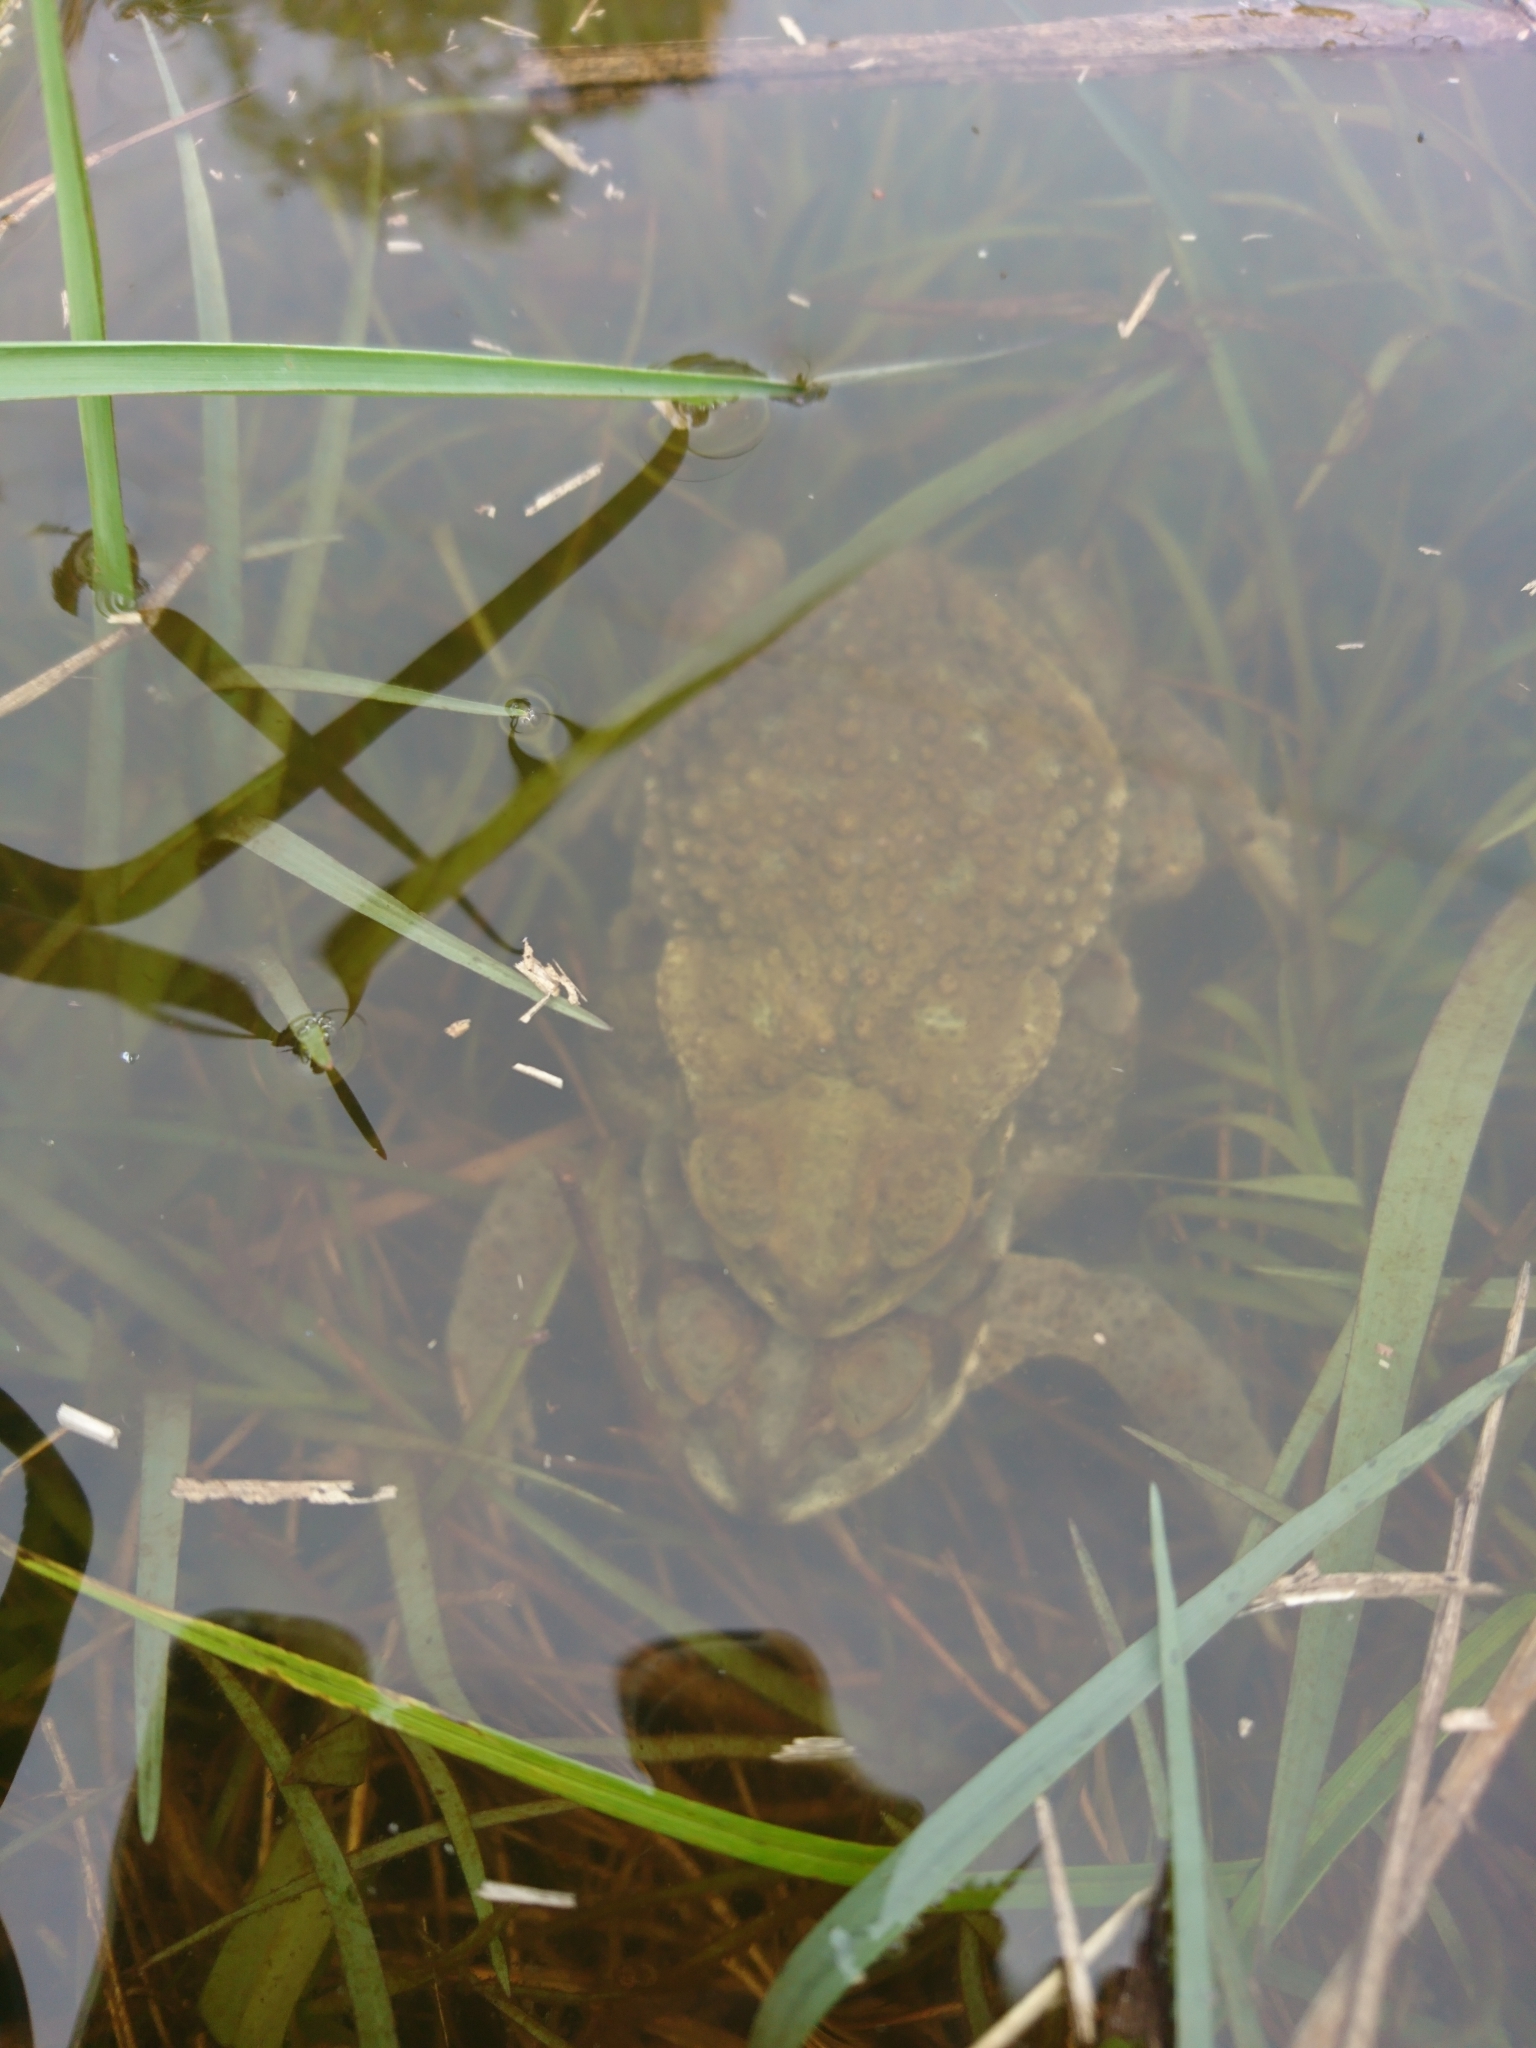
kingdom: Animalia
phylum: Chordata
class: Amphibia
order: Anura
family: Bufonidae
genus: Rhinella
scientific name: Rhinella arenarum
